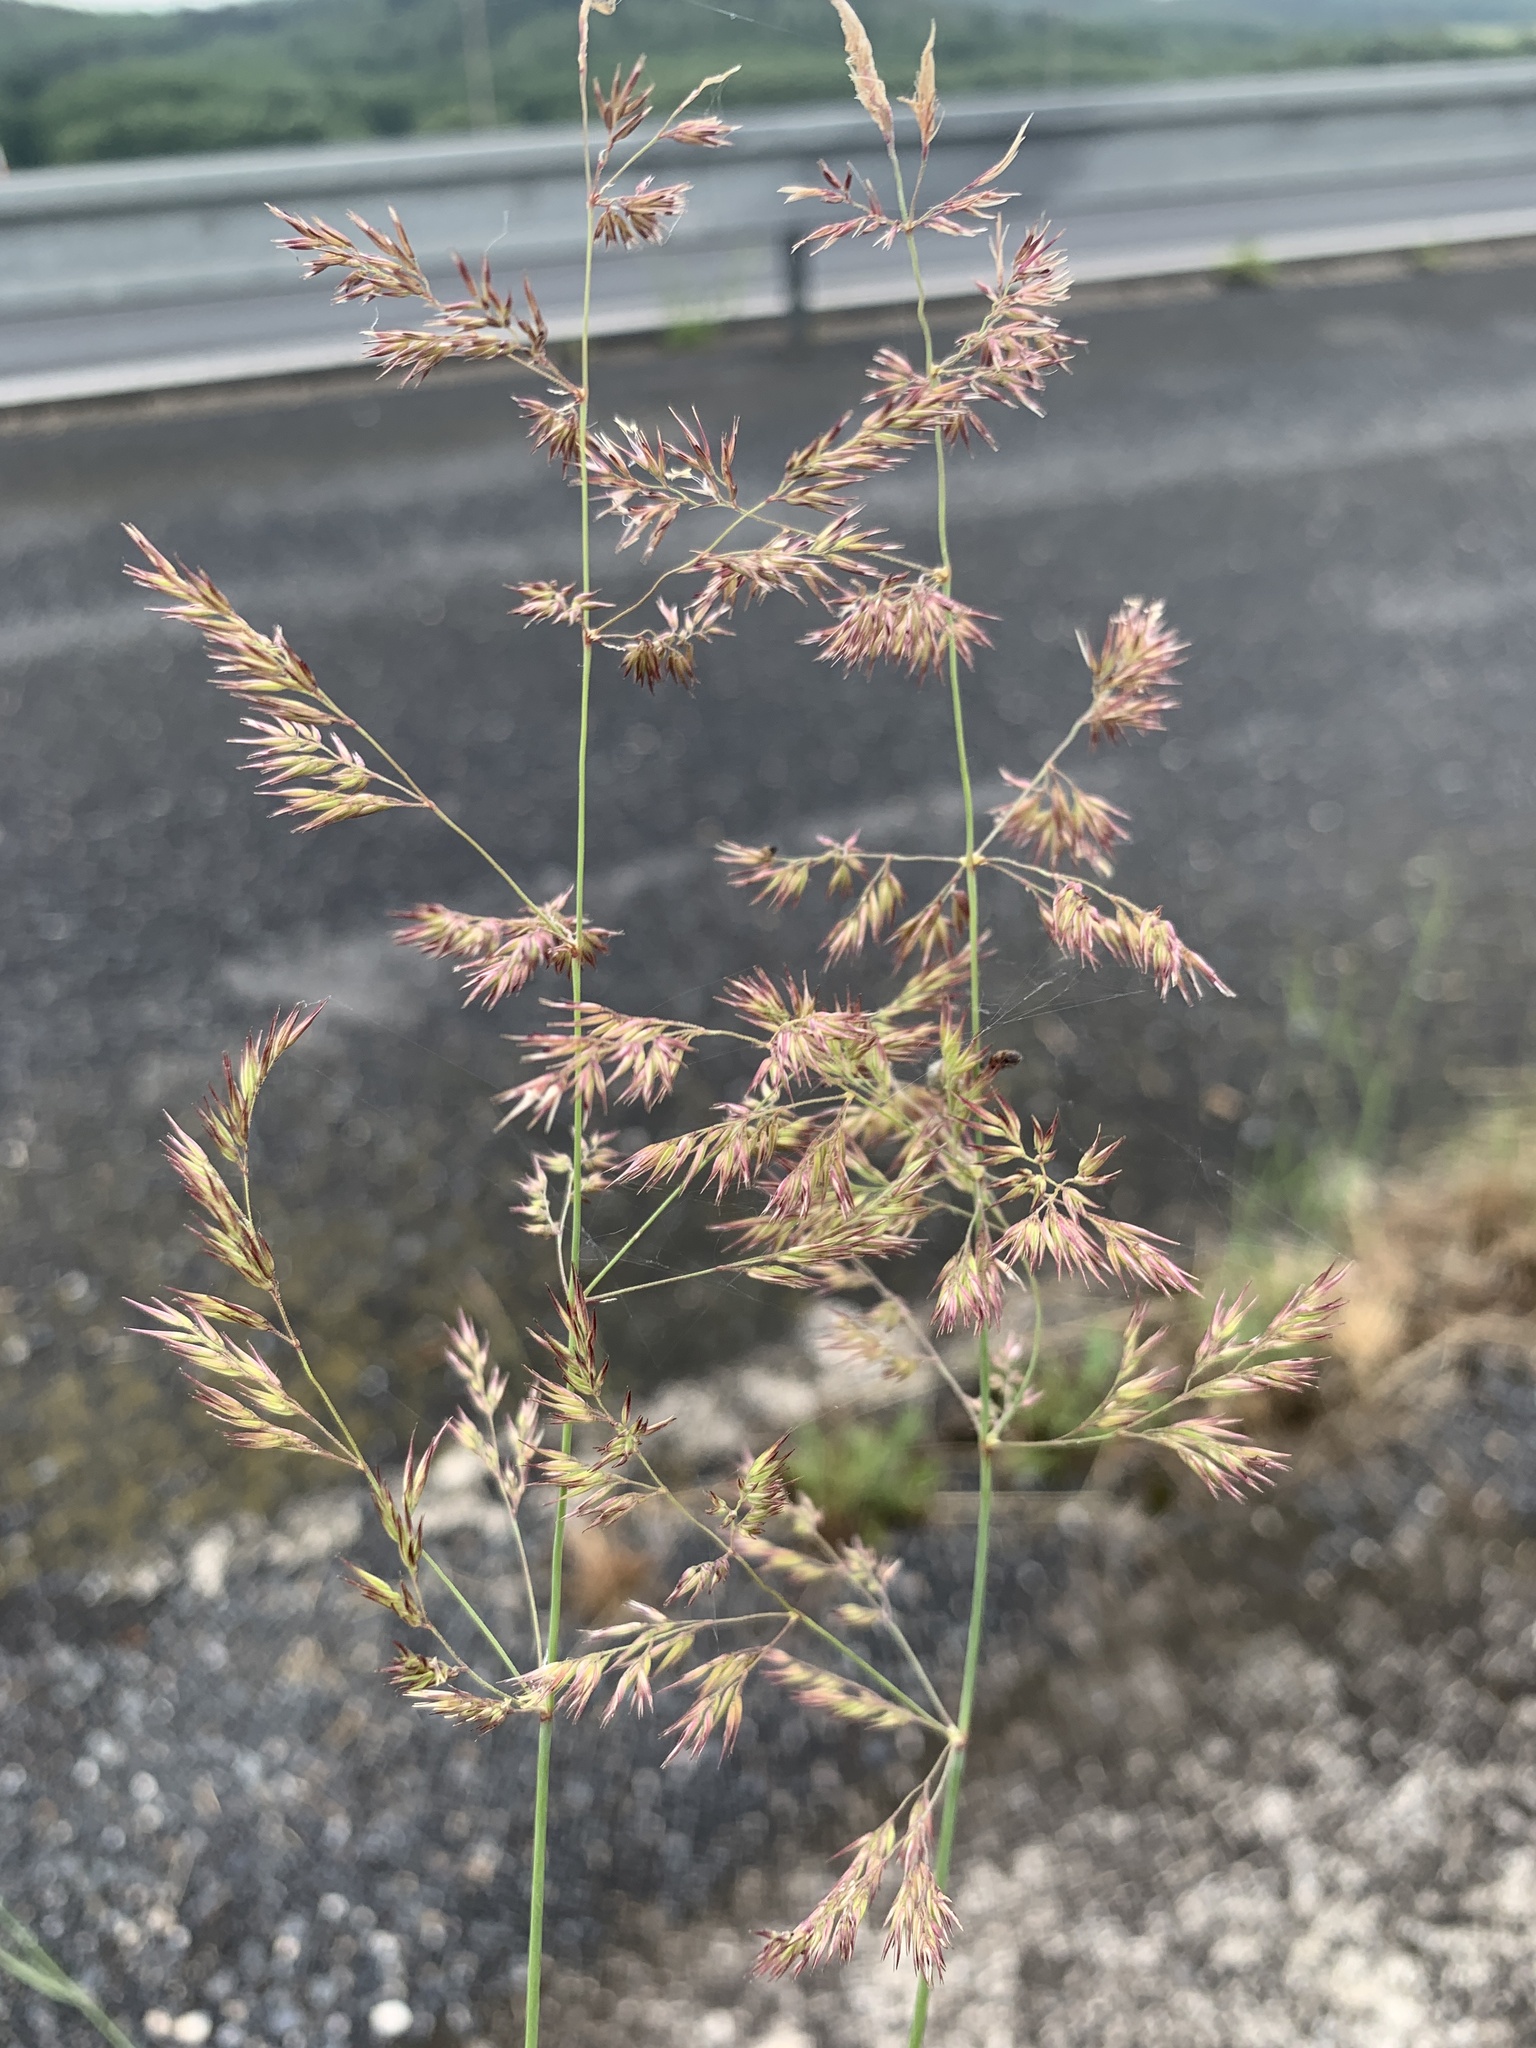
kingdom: Plantae
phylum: Tracheophyta
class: Liliopsida
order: Poales
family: Poaceae
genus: Calamagrostis
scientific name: Calamagrostis epigejos
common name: Wood small-reed
